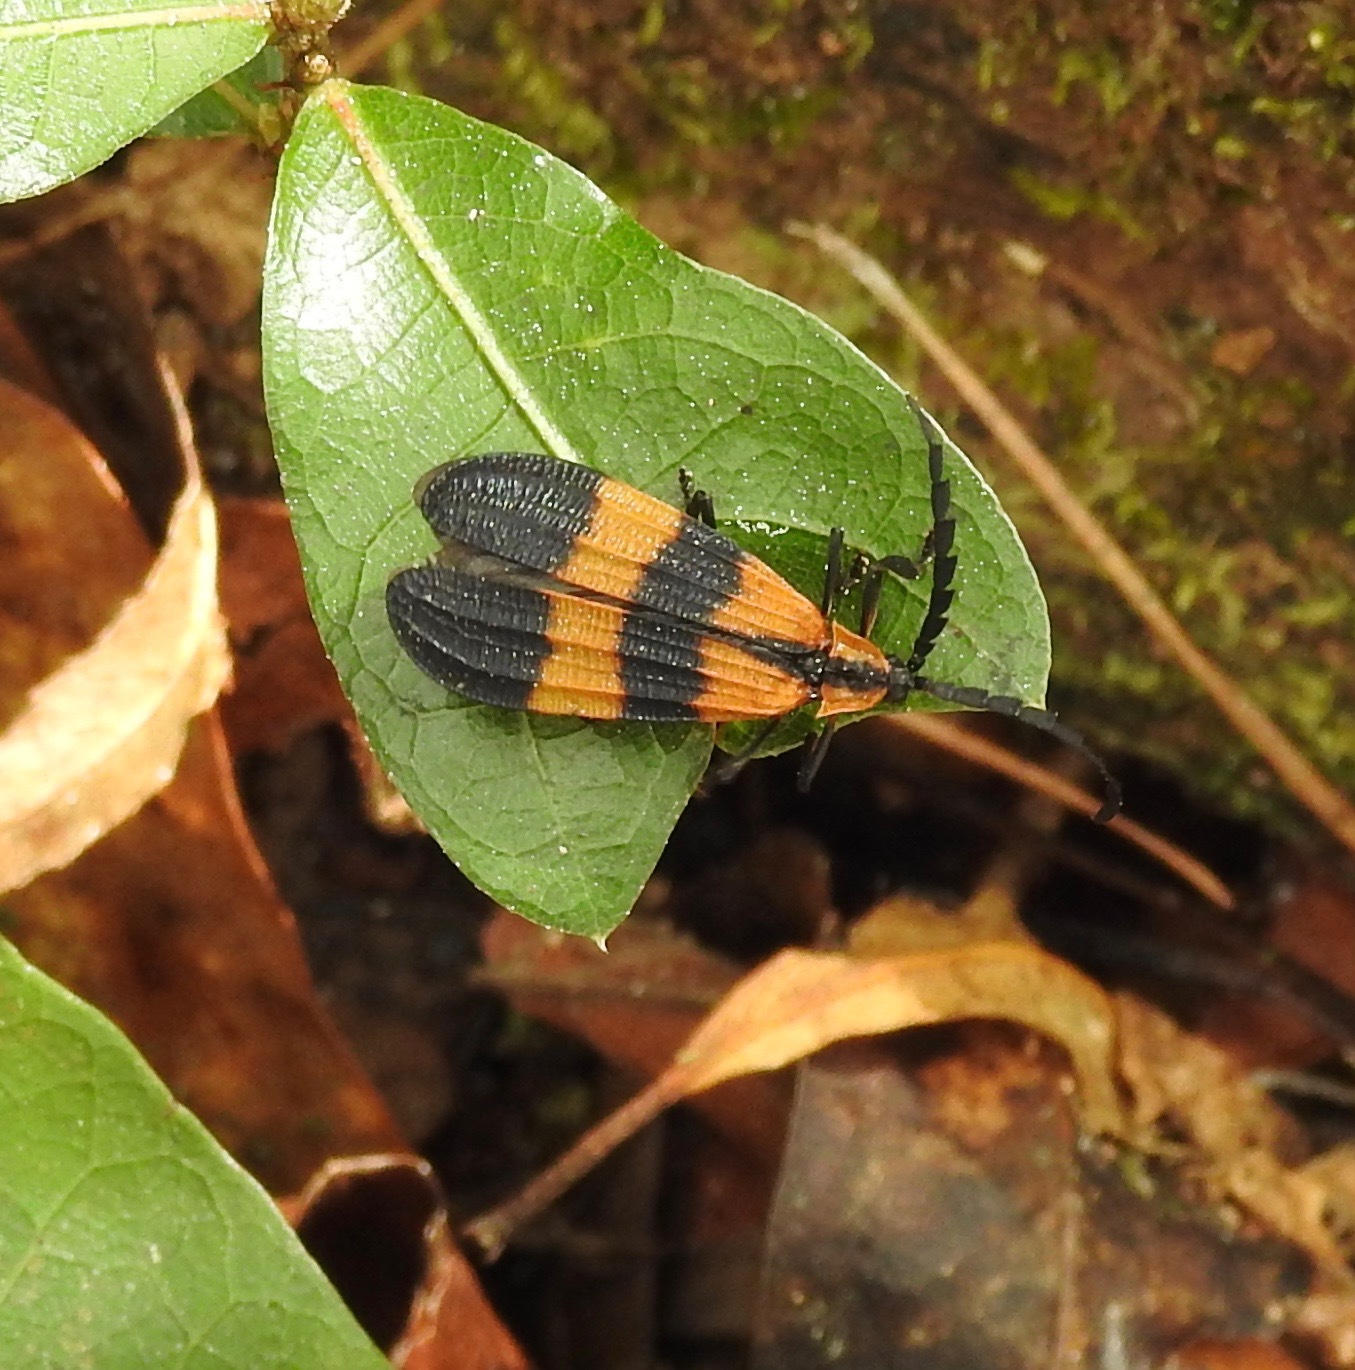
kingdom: Animalia
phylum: Arthropoda
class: Insecta
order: Coleoptera
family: Lycidae
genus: Calopteron
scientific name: Calopteron discrepans
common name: Banded net-winged beetle
